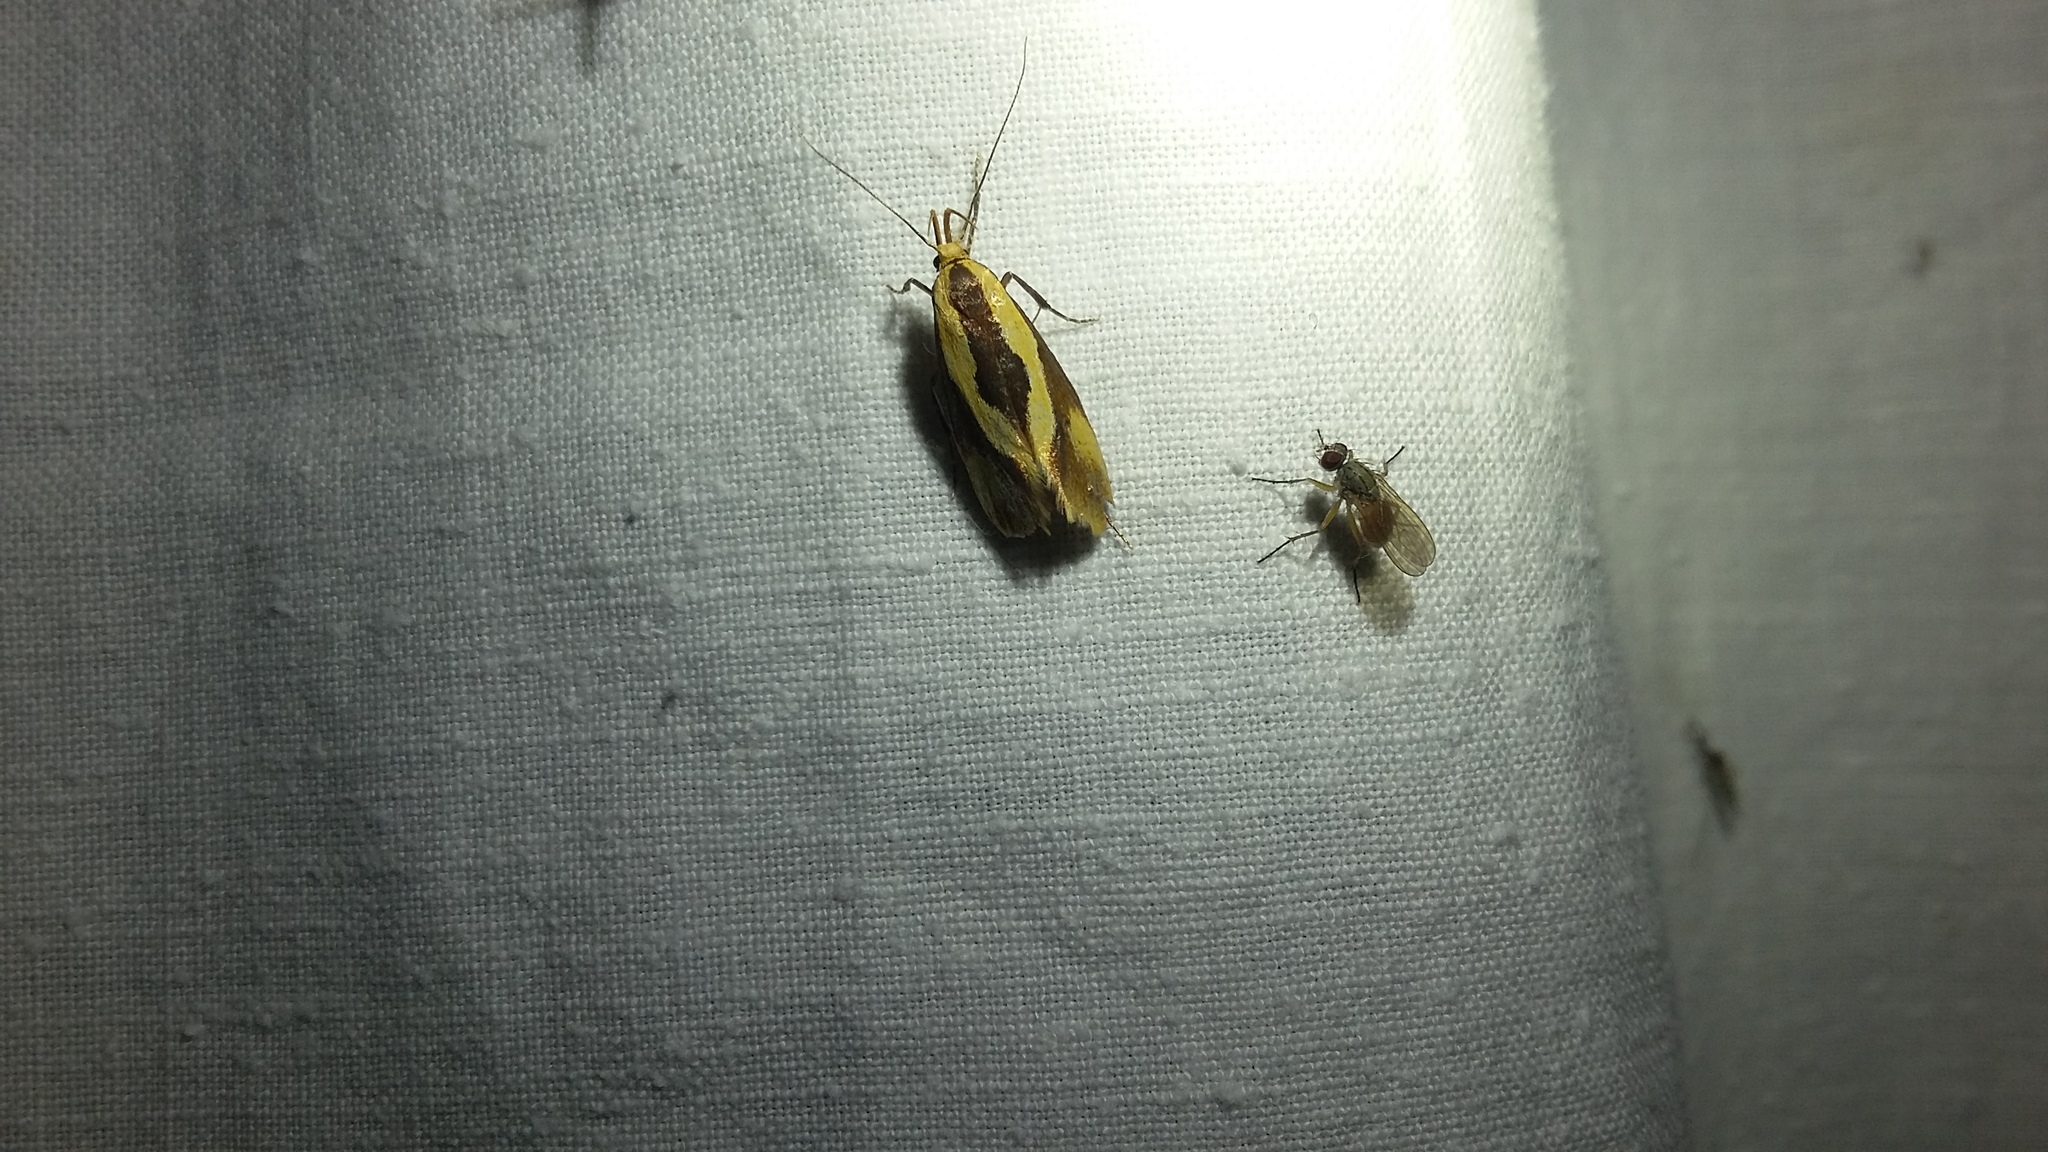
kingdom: Animalia
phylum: Arthropoda
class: Insecta
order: Lepidoptera
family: Oecophoridae
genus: Harpella
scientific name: Harpella forficella
